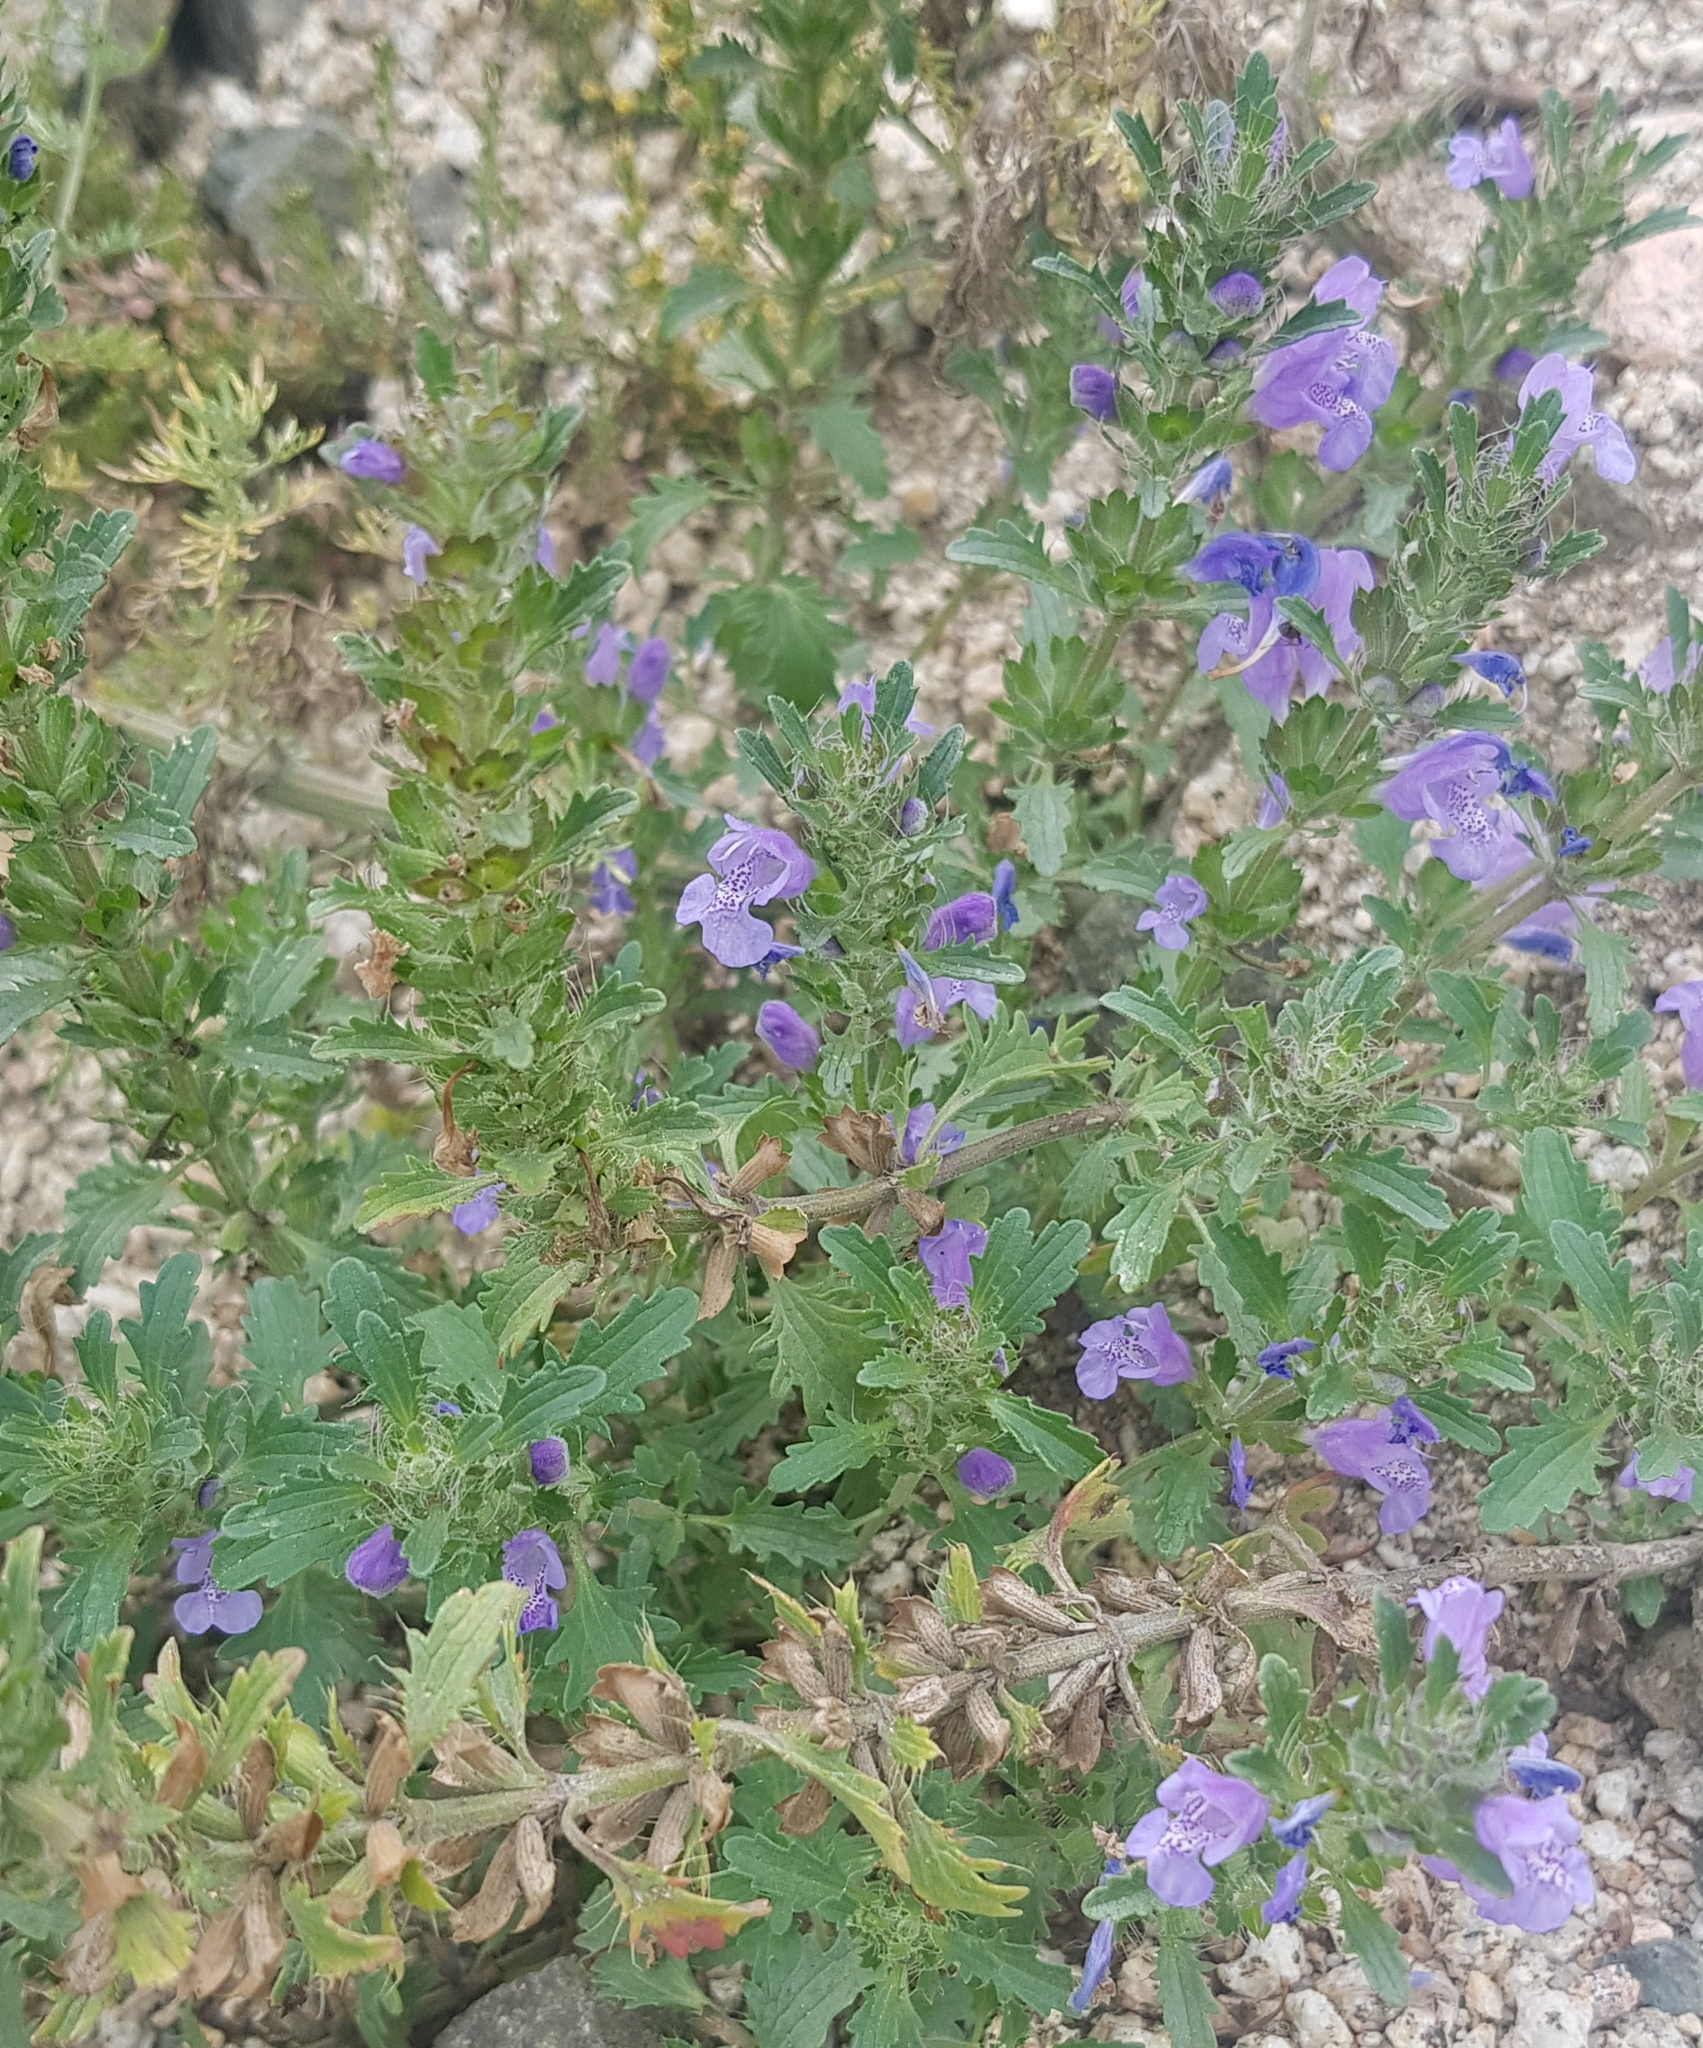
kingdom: Plantae
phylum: Tracheophyta
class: Magnoliopsida
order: Lamiales
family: Lamiaceae
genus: Dracocephalum
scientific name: Dracocephalum foetidum
